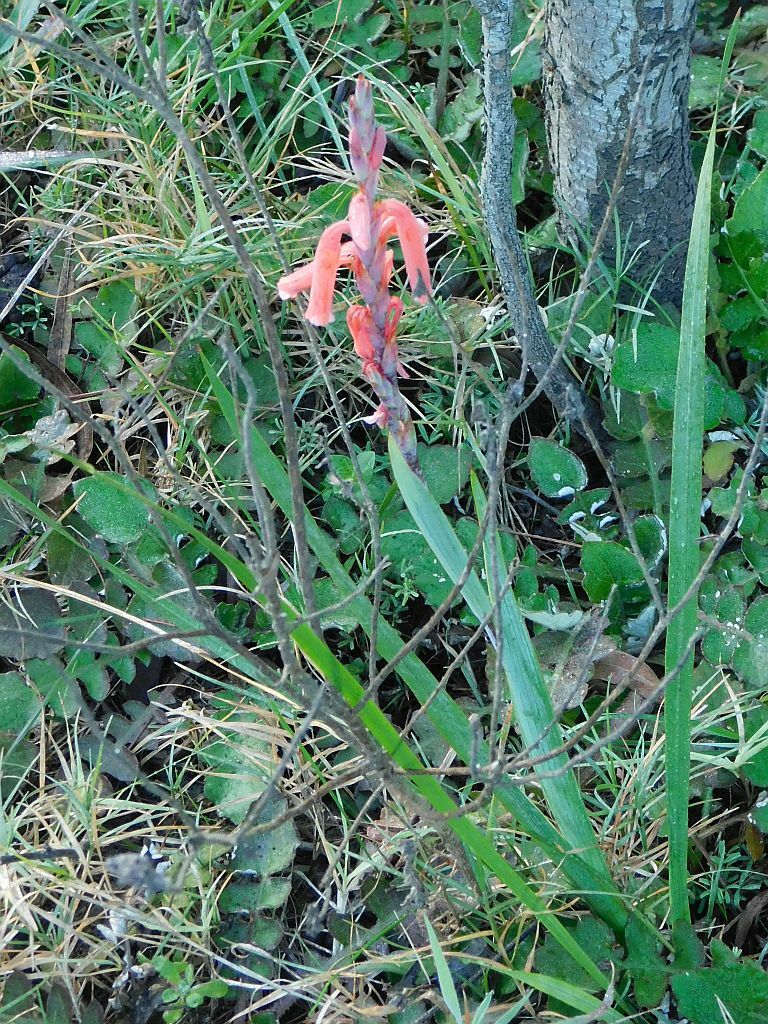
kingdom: Plantae
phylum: Tracheophyta
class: Liliopsida
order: Asparagales
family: Iridaceae
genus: Watsonia
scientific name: Watsonia aletroides
